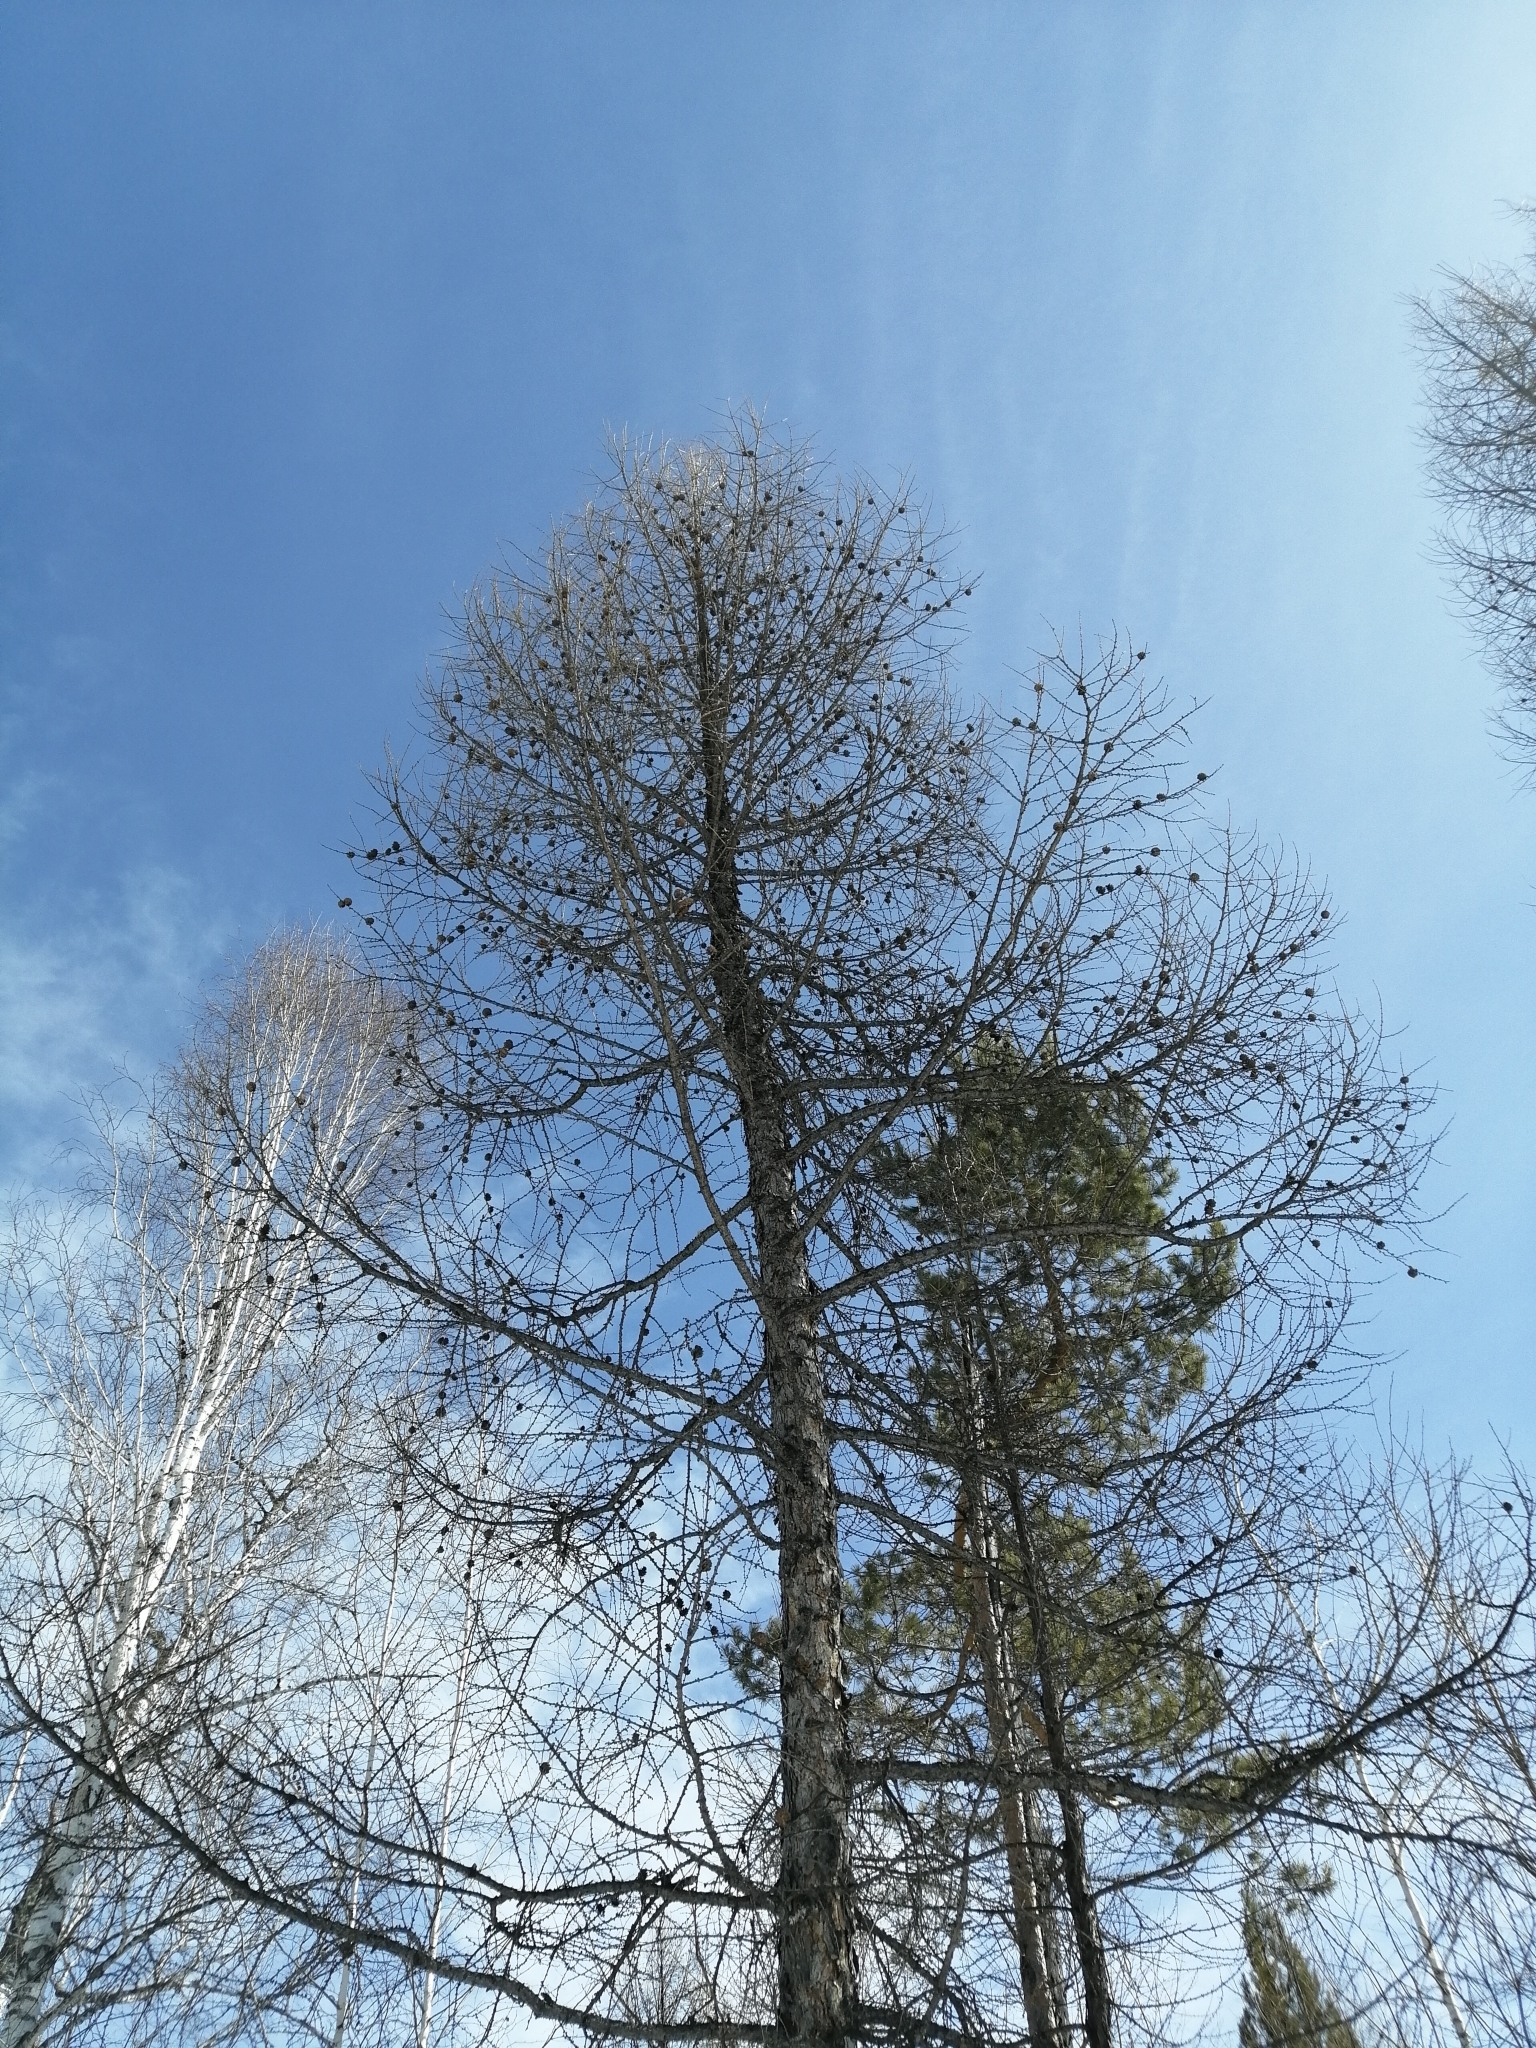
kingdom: Plantae
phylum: Tracheophyta
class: Pinopsida
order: Pinales
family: Pinaceae
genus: Larix
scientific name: Larix sibirica
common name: Siberian larch
